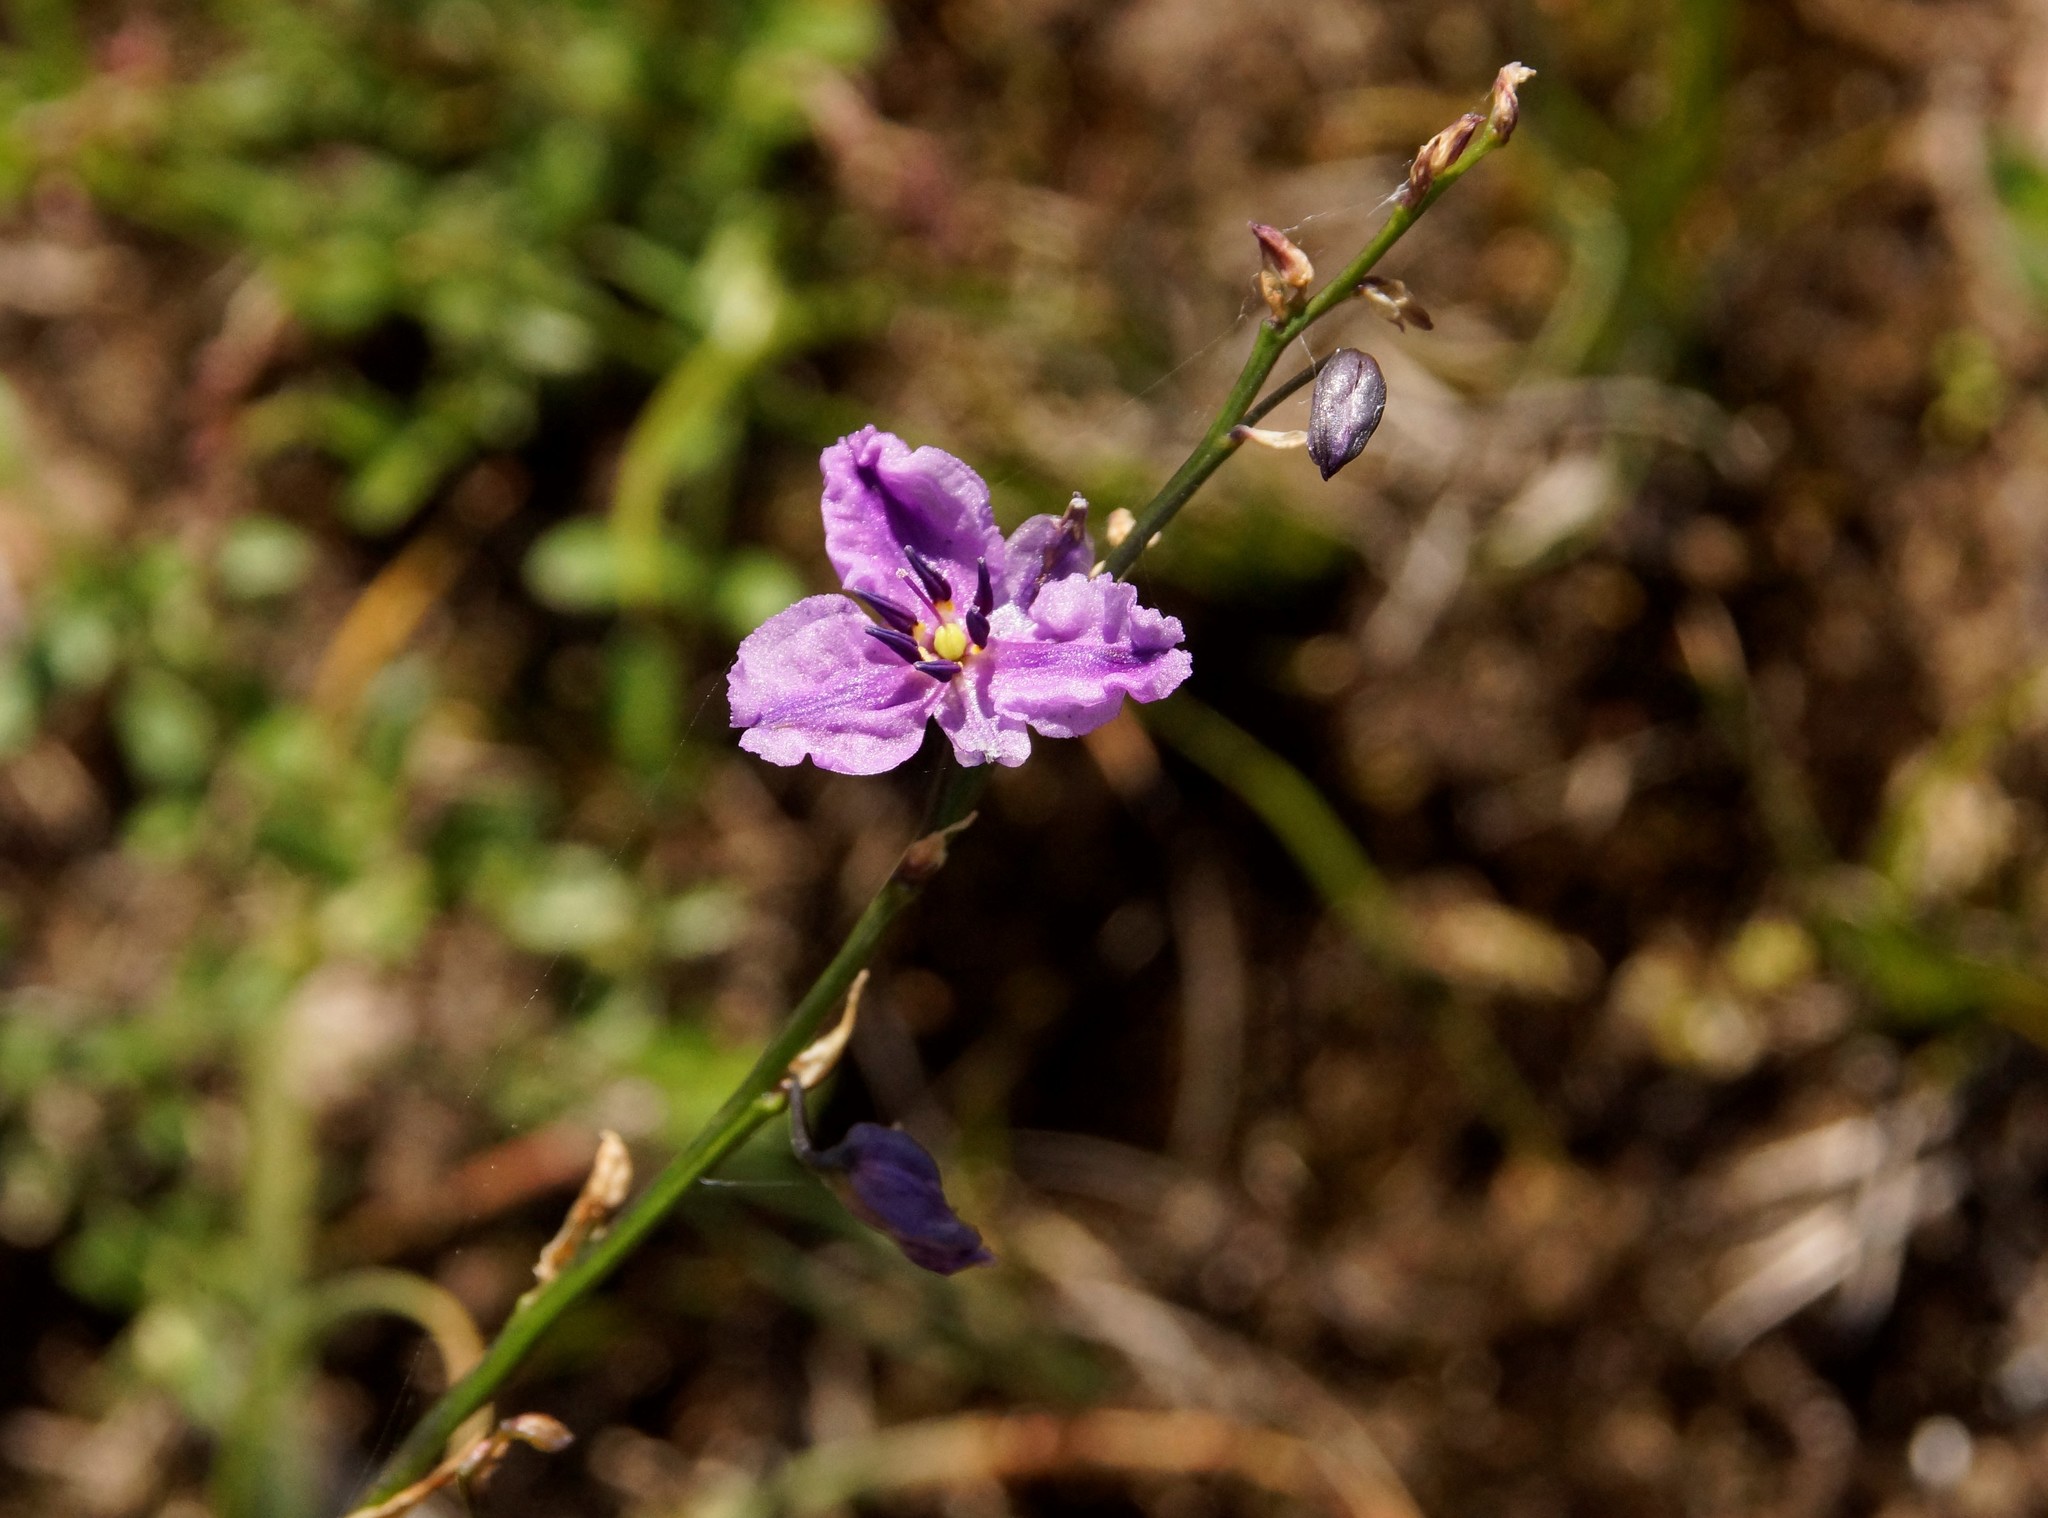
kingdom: Plantae
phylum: Tracheophyta
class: Liliopsida
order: Asparagales
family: Asparagaceae
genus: Arthropodium
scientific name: Arthropodium strictum
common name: Chocolate-lily
